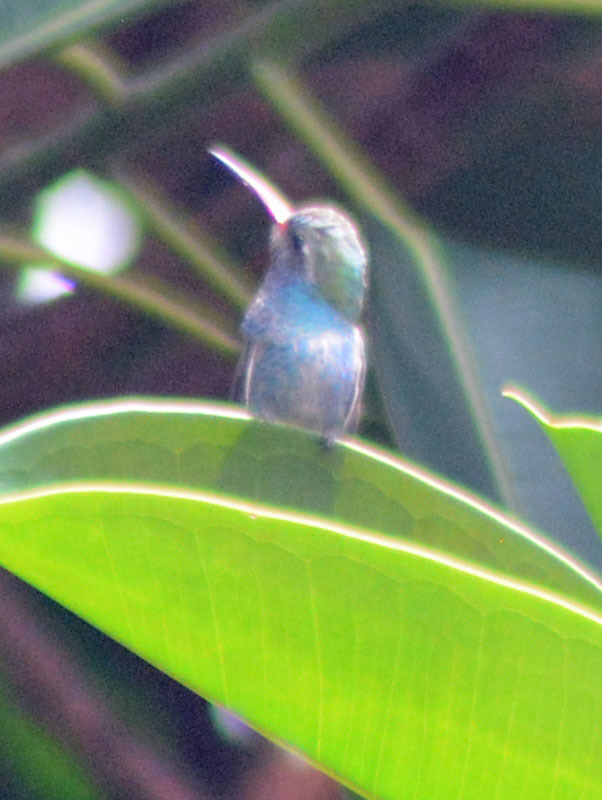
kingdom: Animalia
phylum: Chordata
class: Aves
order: Apodiformes
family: Trochilidae
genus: Cynanthus
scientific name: Cynanthus latirostris
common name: Broad-billed hummingbird
